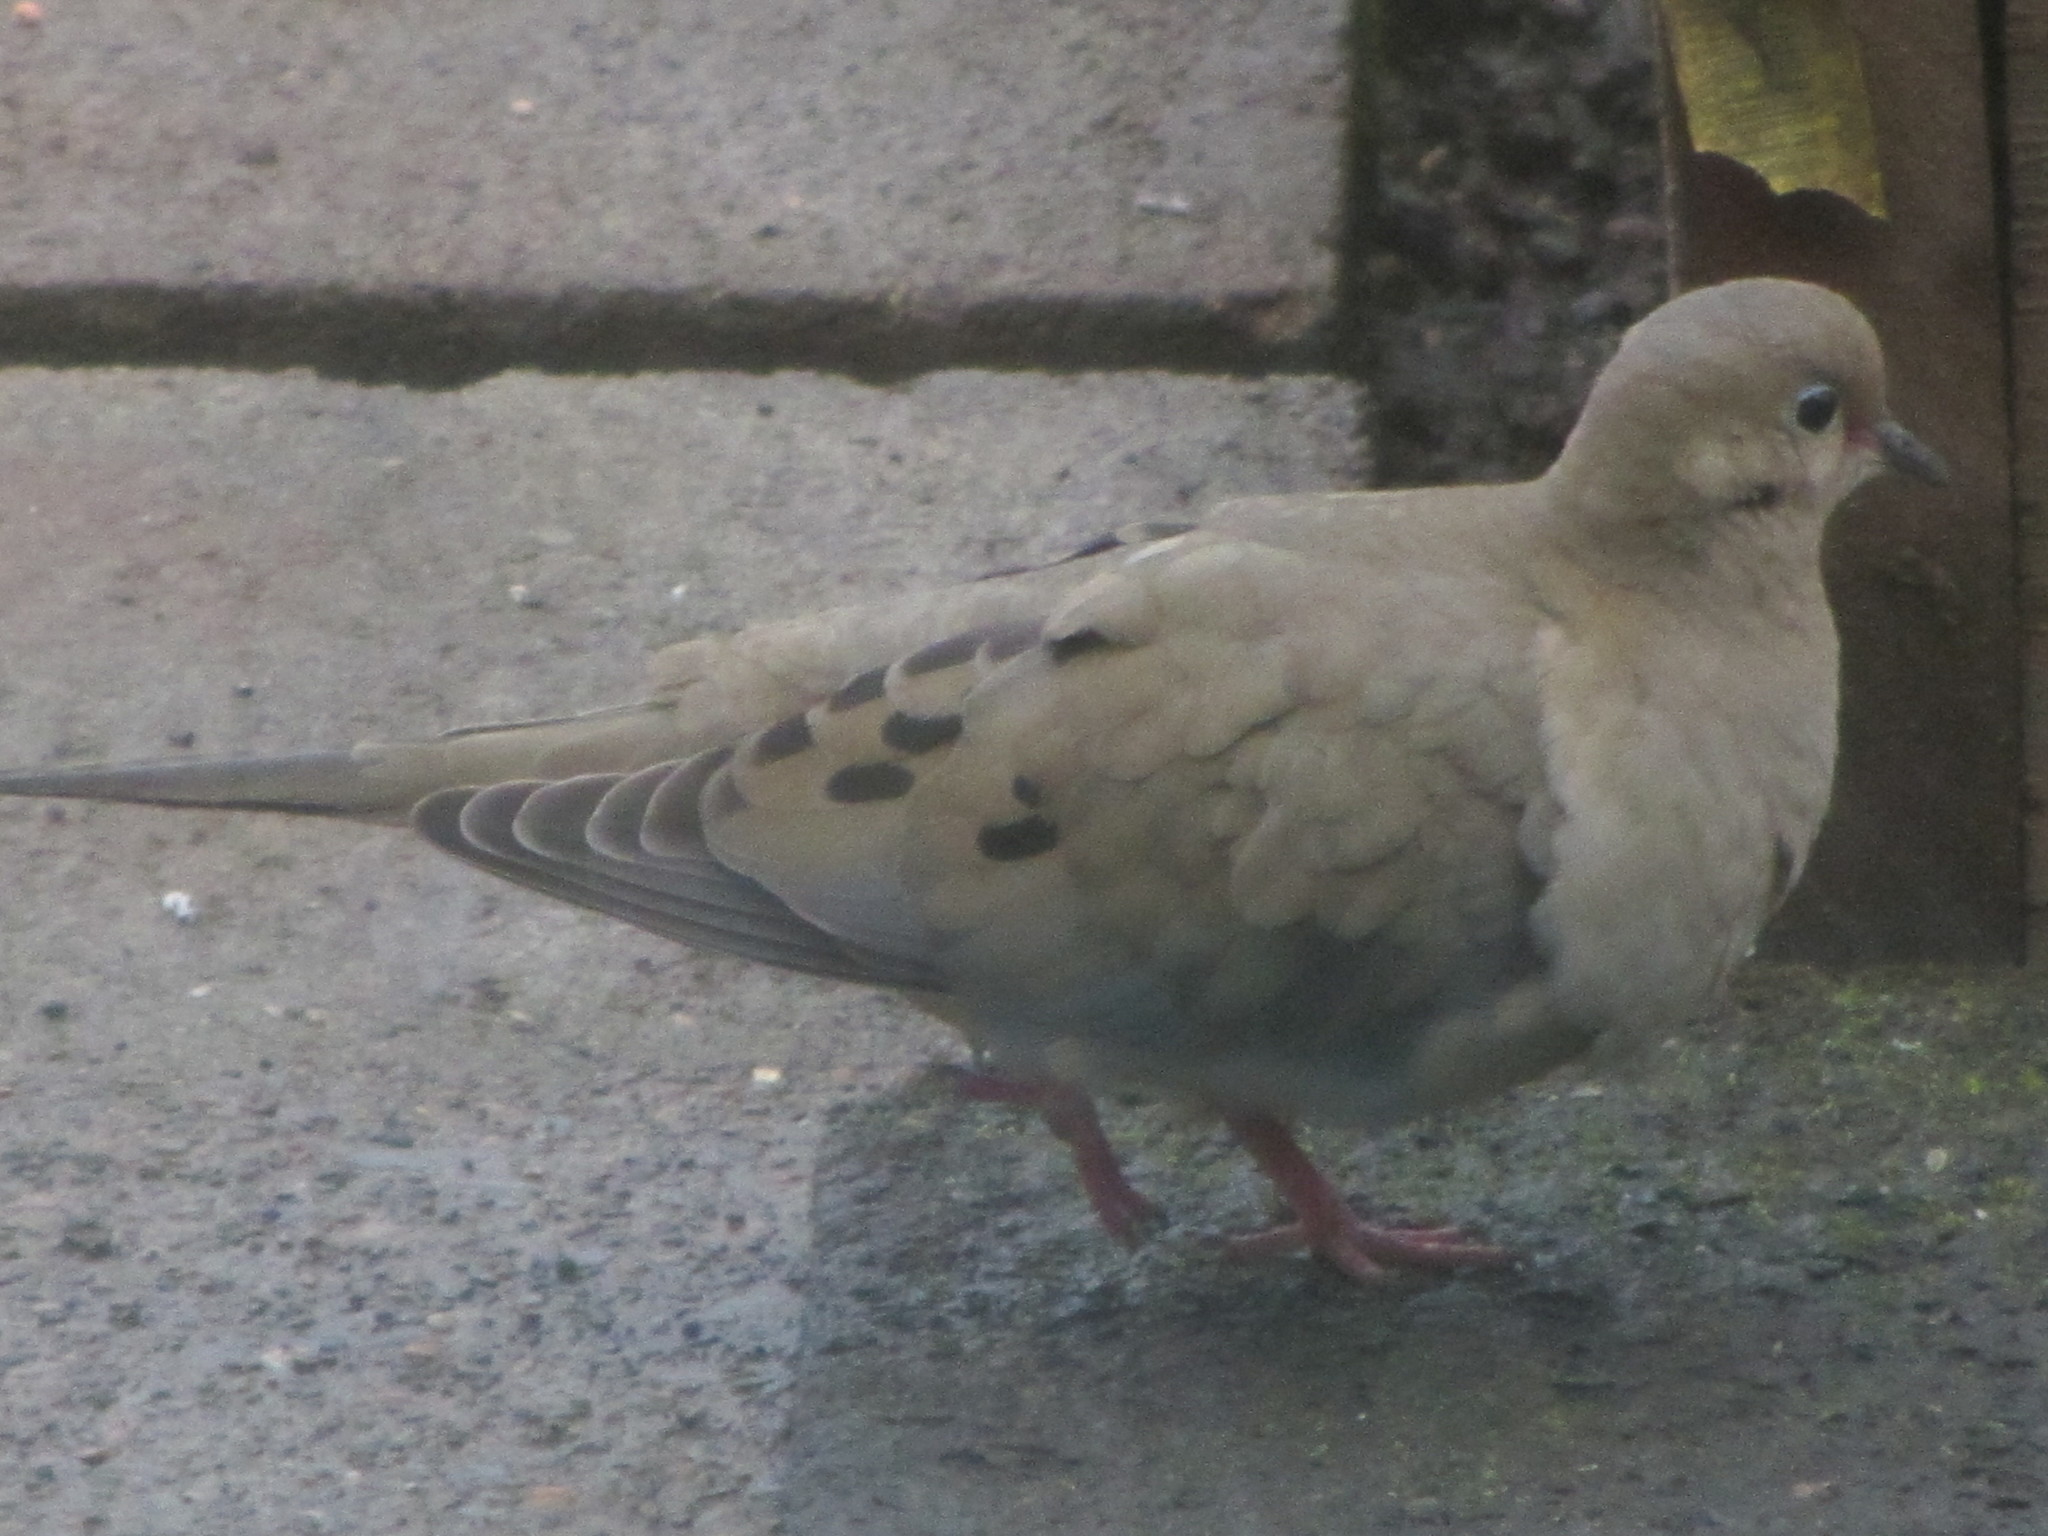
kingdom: Animalia
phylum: Chordata
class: Aves
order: Columbiformes
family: Columbidae
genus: Zenaida
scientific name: Zenaida macroura
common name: Mourning dove
